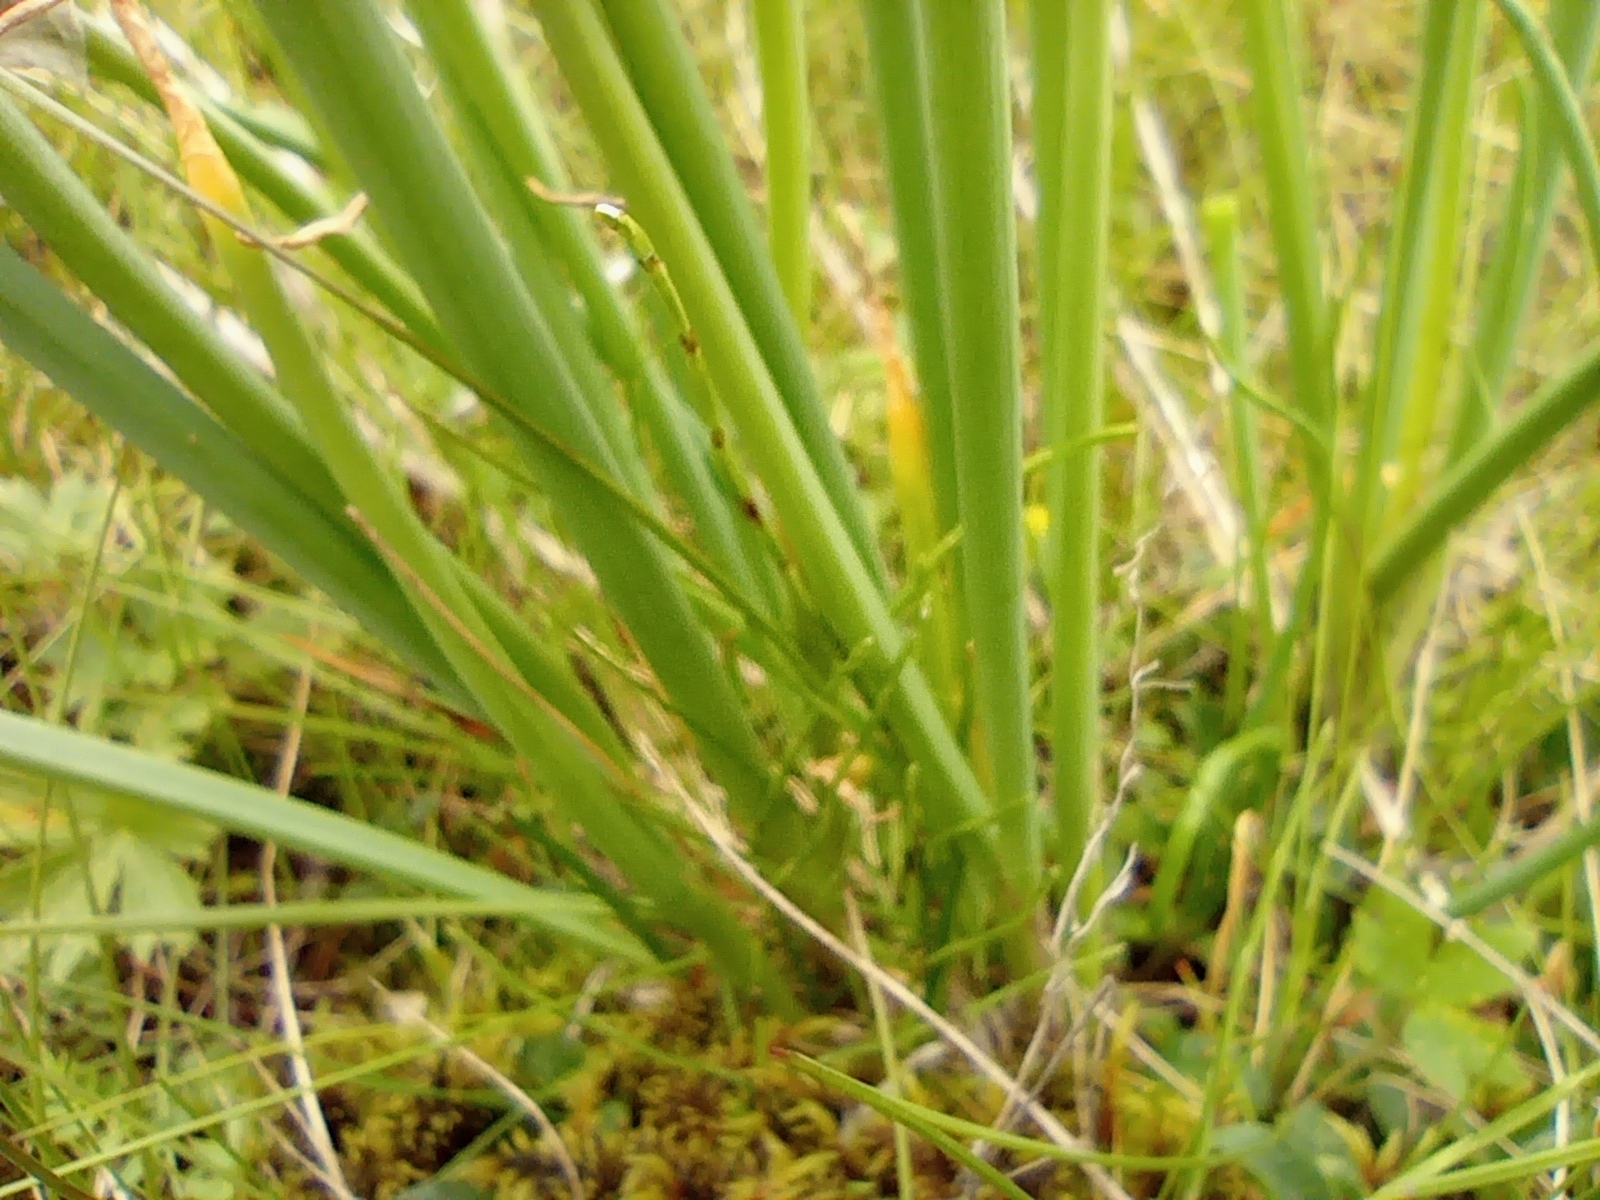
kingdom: Plantae
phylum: Tracheophyta
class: Liliopsida
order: Asparagales
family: Amaryllidaceae
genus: Allium
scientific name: Allium schoenoprasum
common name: Chives
